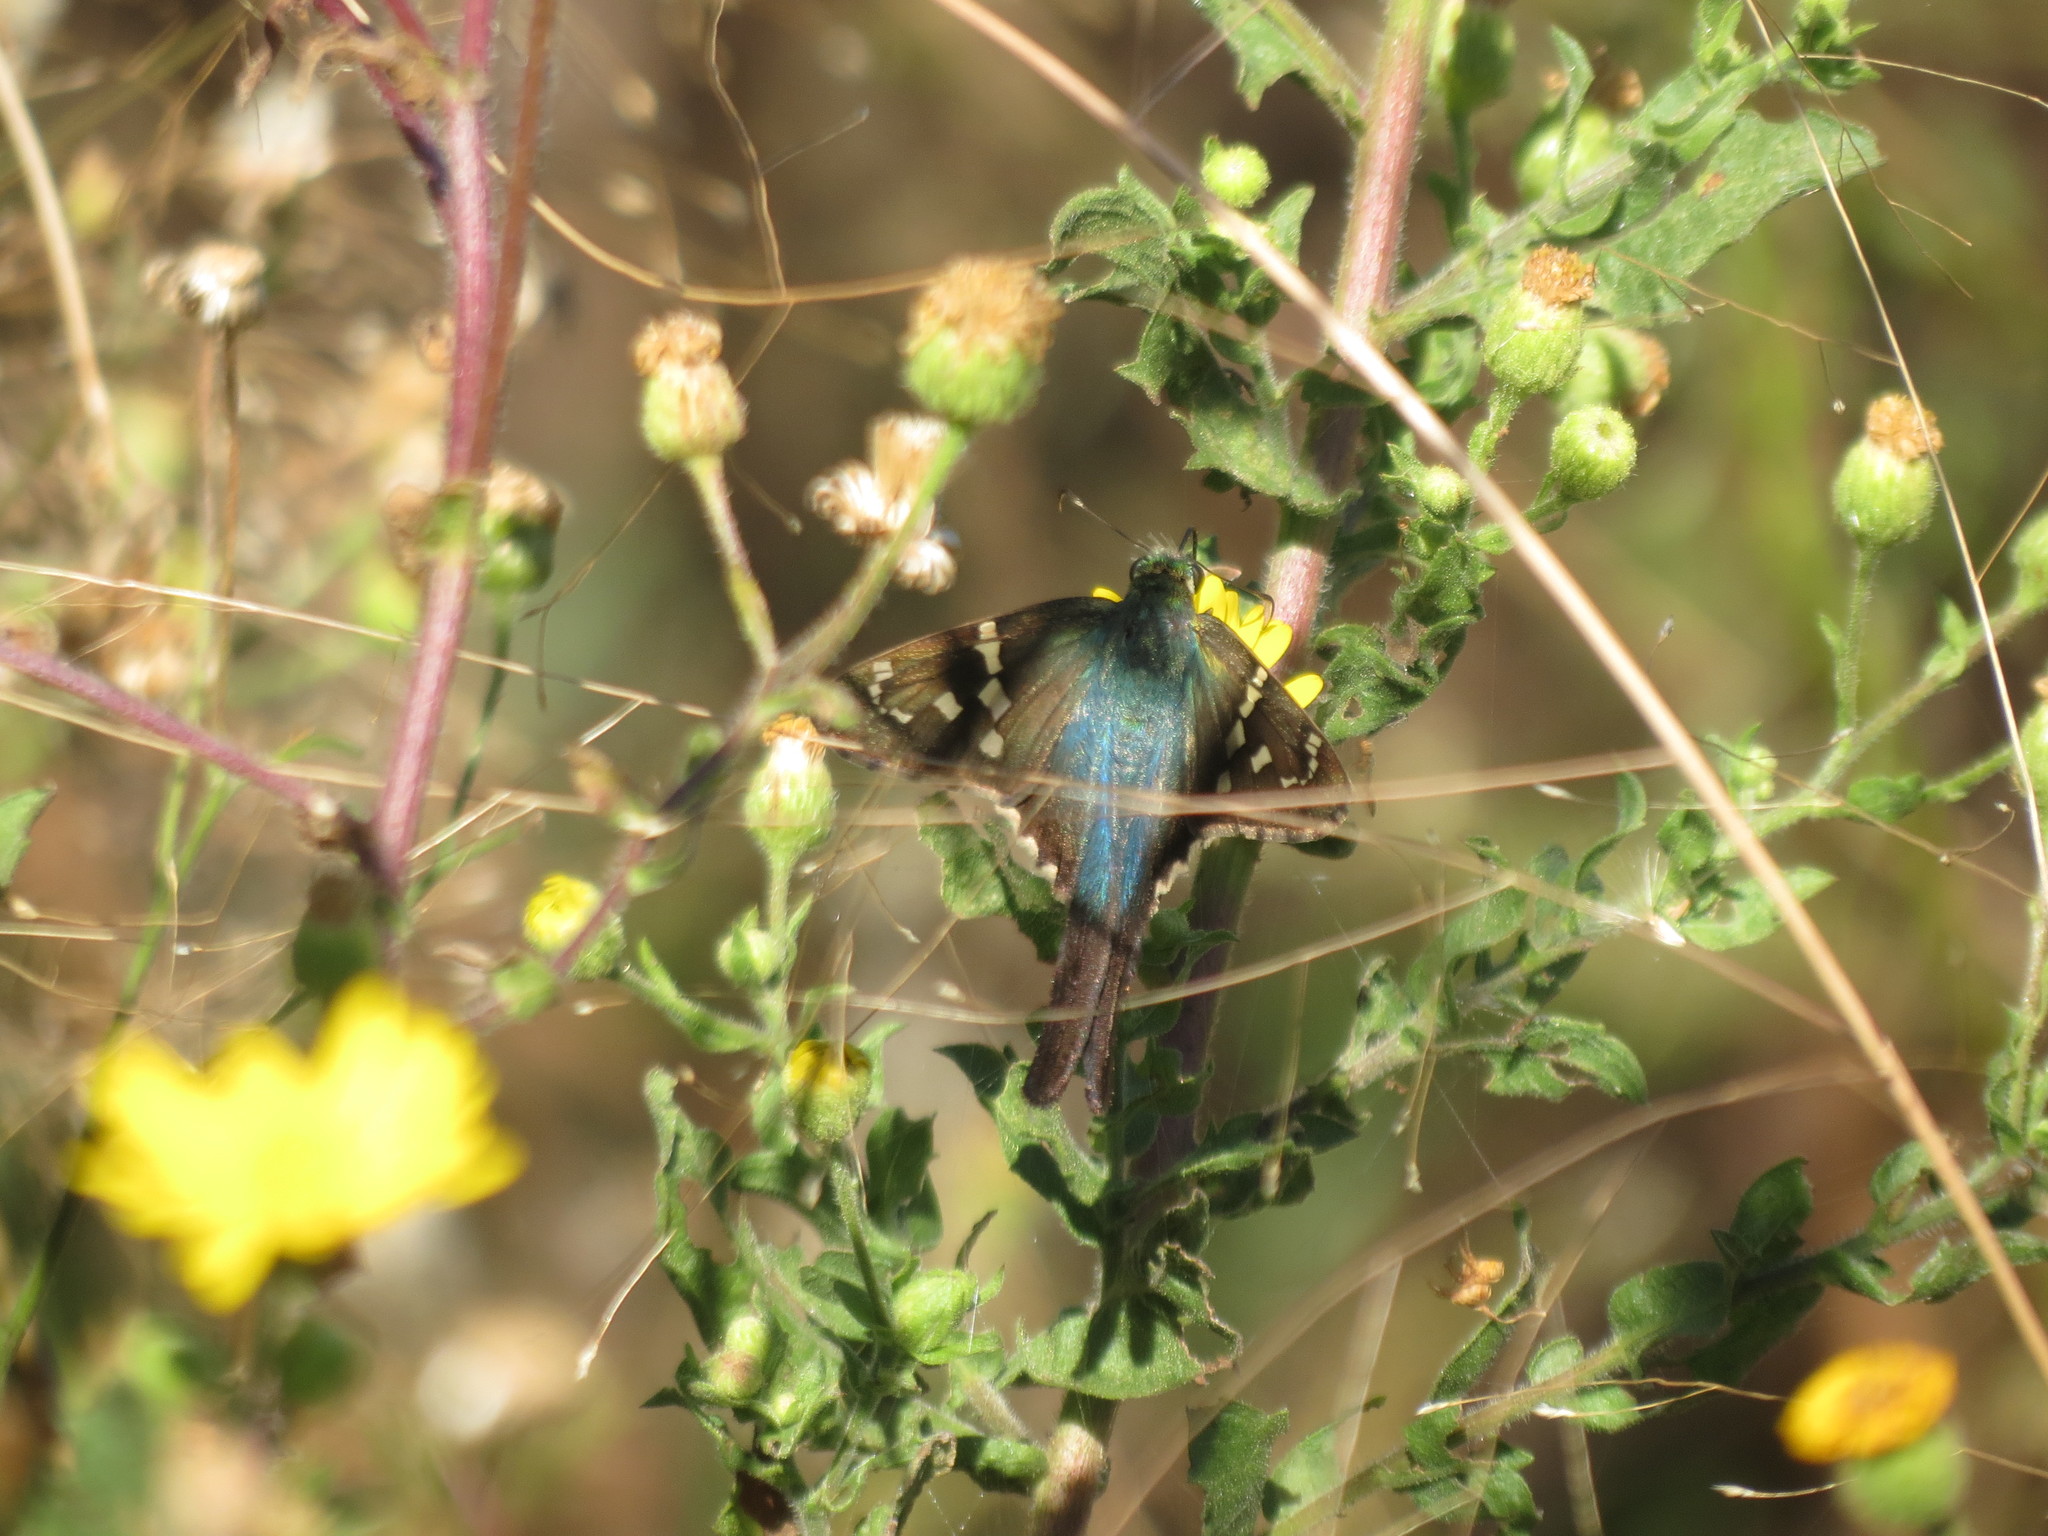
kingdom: Animalia
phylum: Arthropoda
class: Insecta
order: Lepidoptera
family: Hesperiidae
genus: Urbanus
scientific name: Urbanus proteus
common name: Long-tailed skipper
